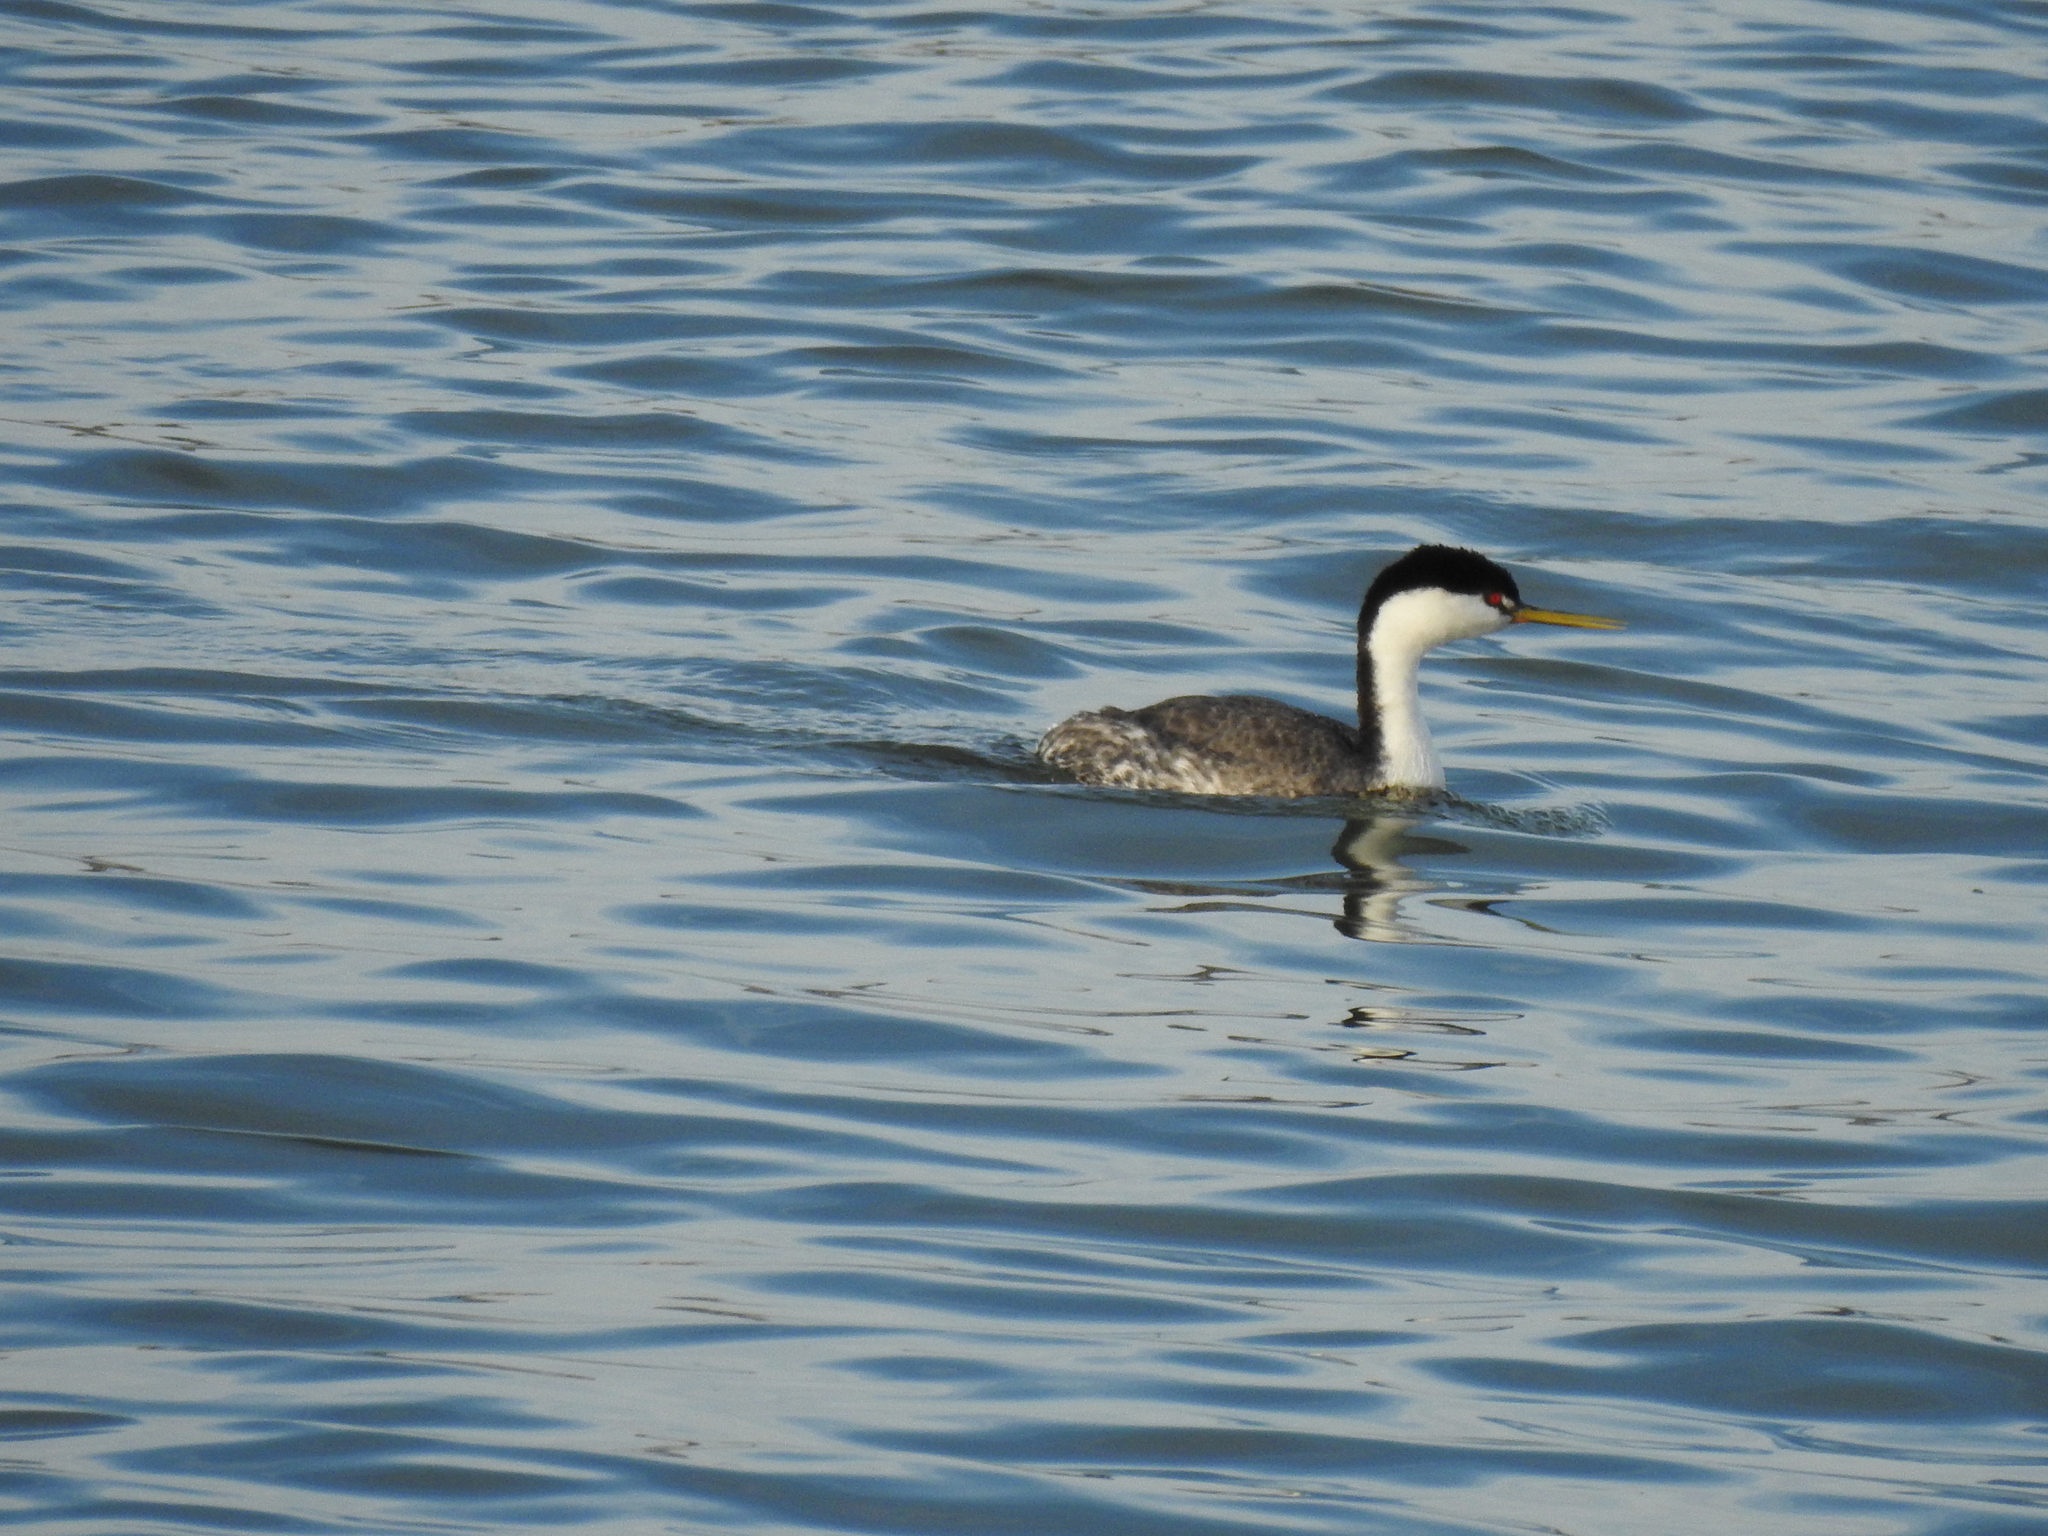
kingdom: Animalia
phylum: Chordata
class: Aves
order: Podicipediformes
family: Podicipedidae
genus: Aechmophorus
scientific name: Aechmophorus occidentalis
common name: Western grebe
